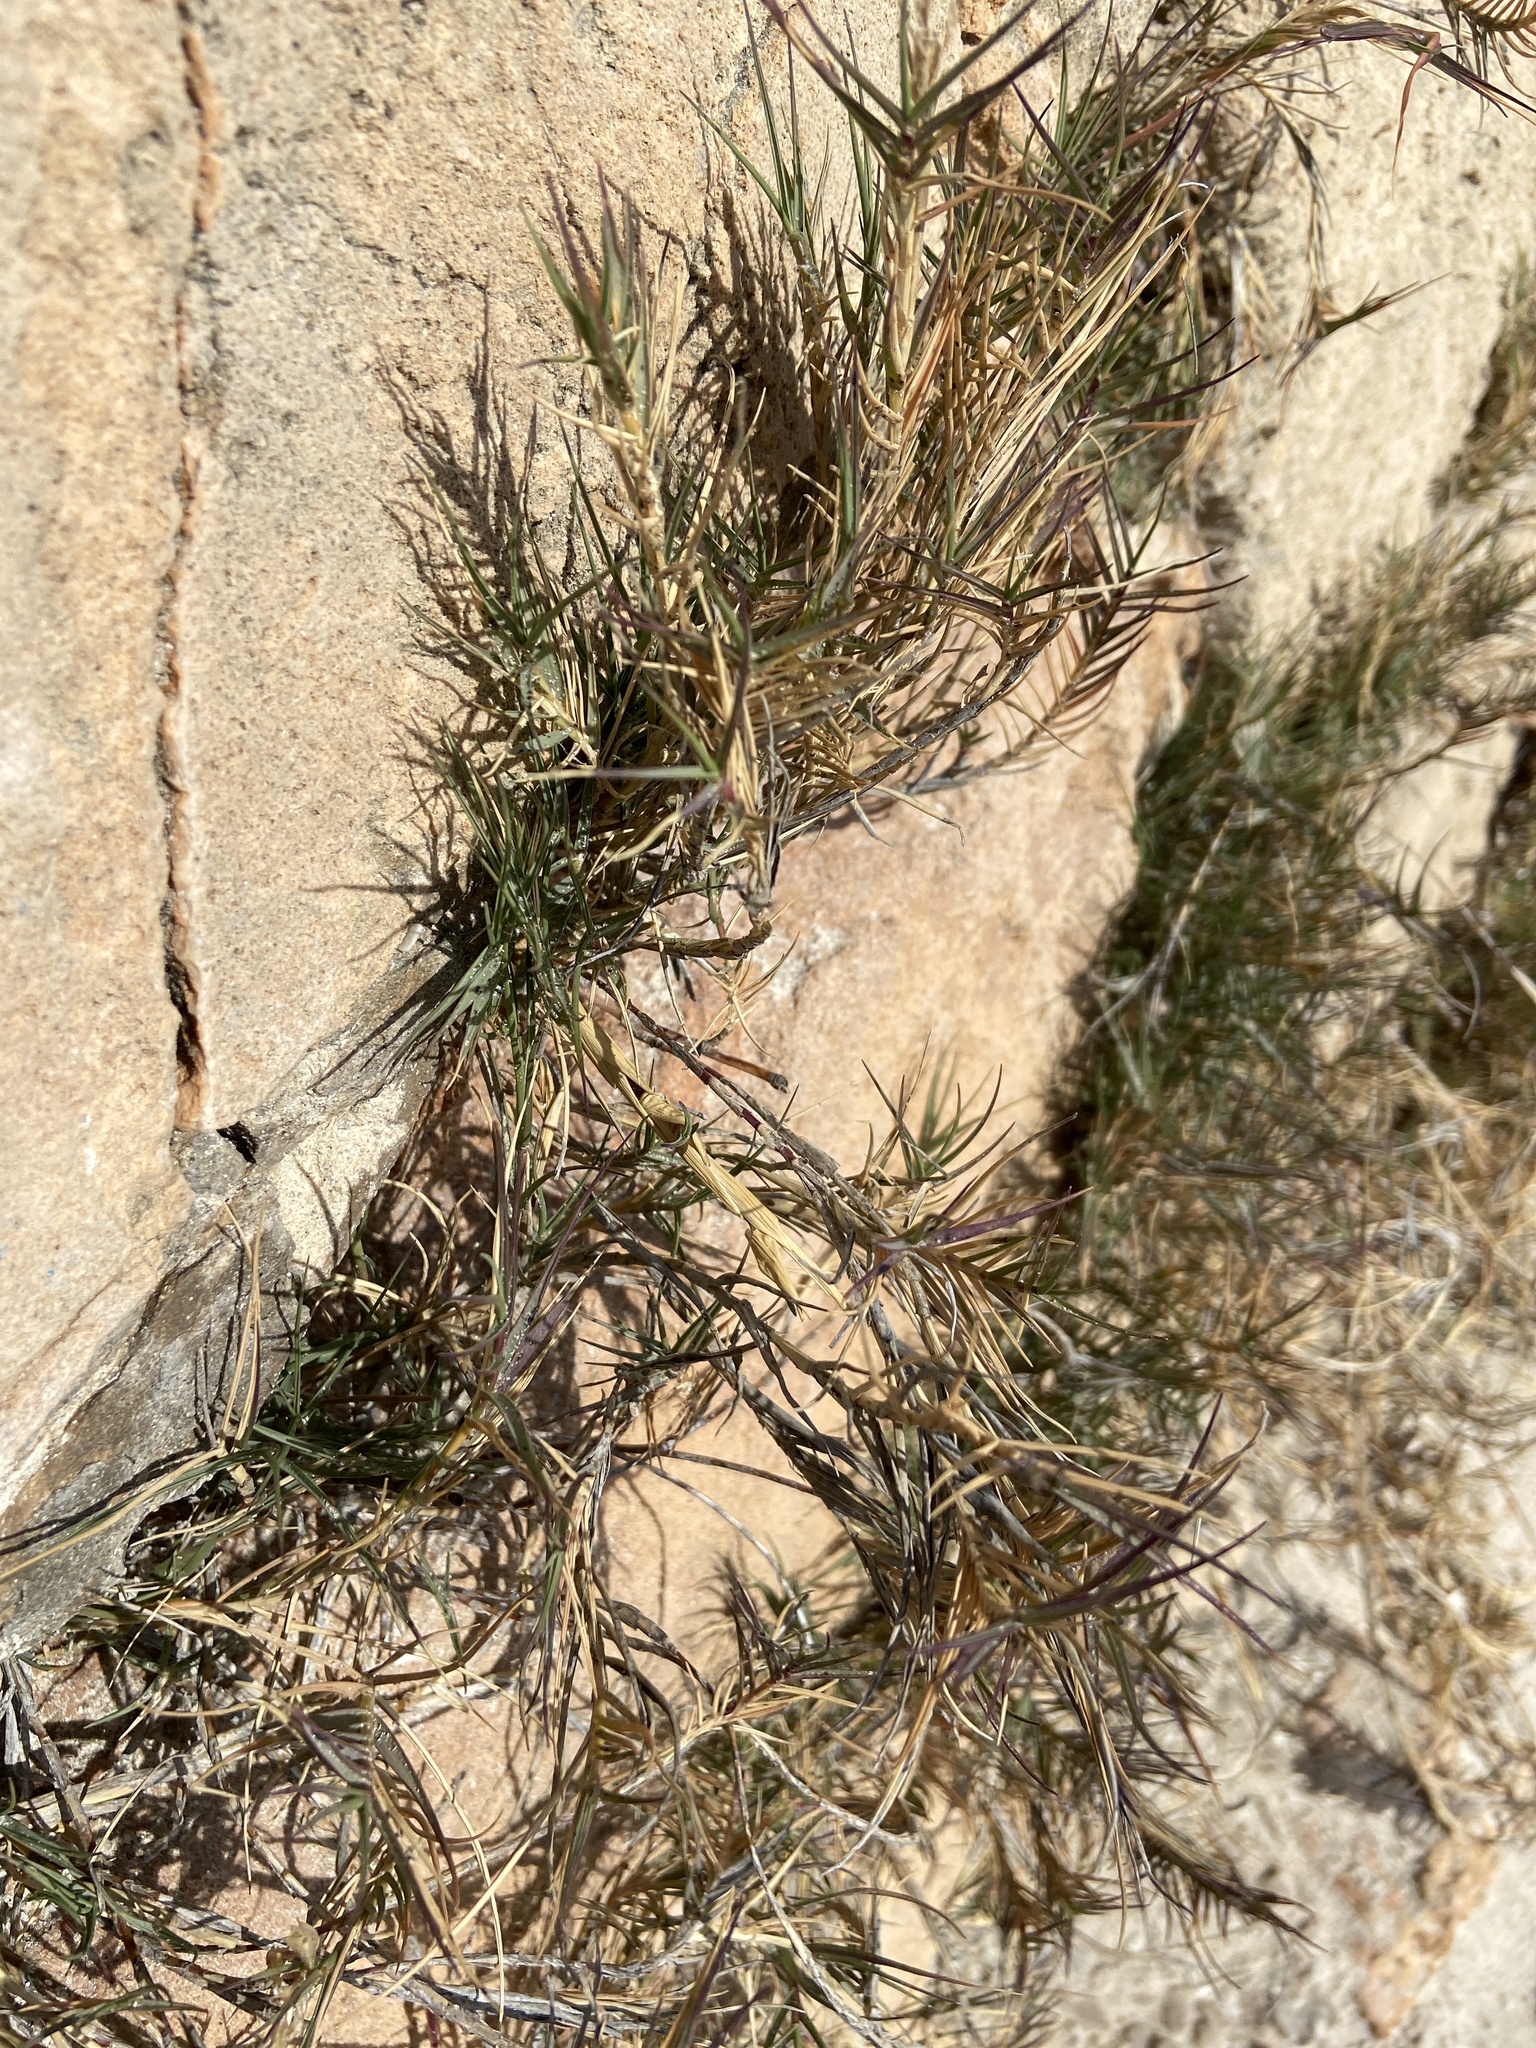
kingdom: Plantae
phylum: Tracheophyta
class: Liliopsida
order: Poales
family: Poaceae
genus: Sporobolus
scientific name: Sporobolus pungens
